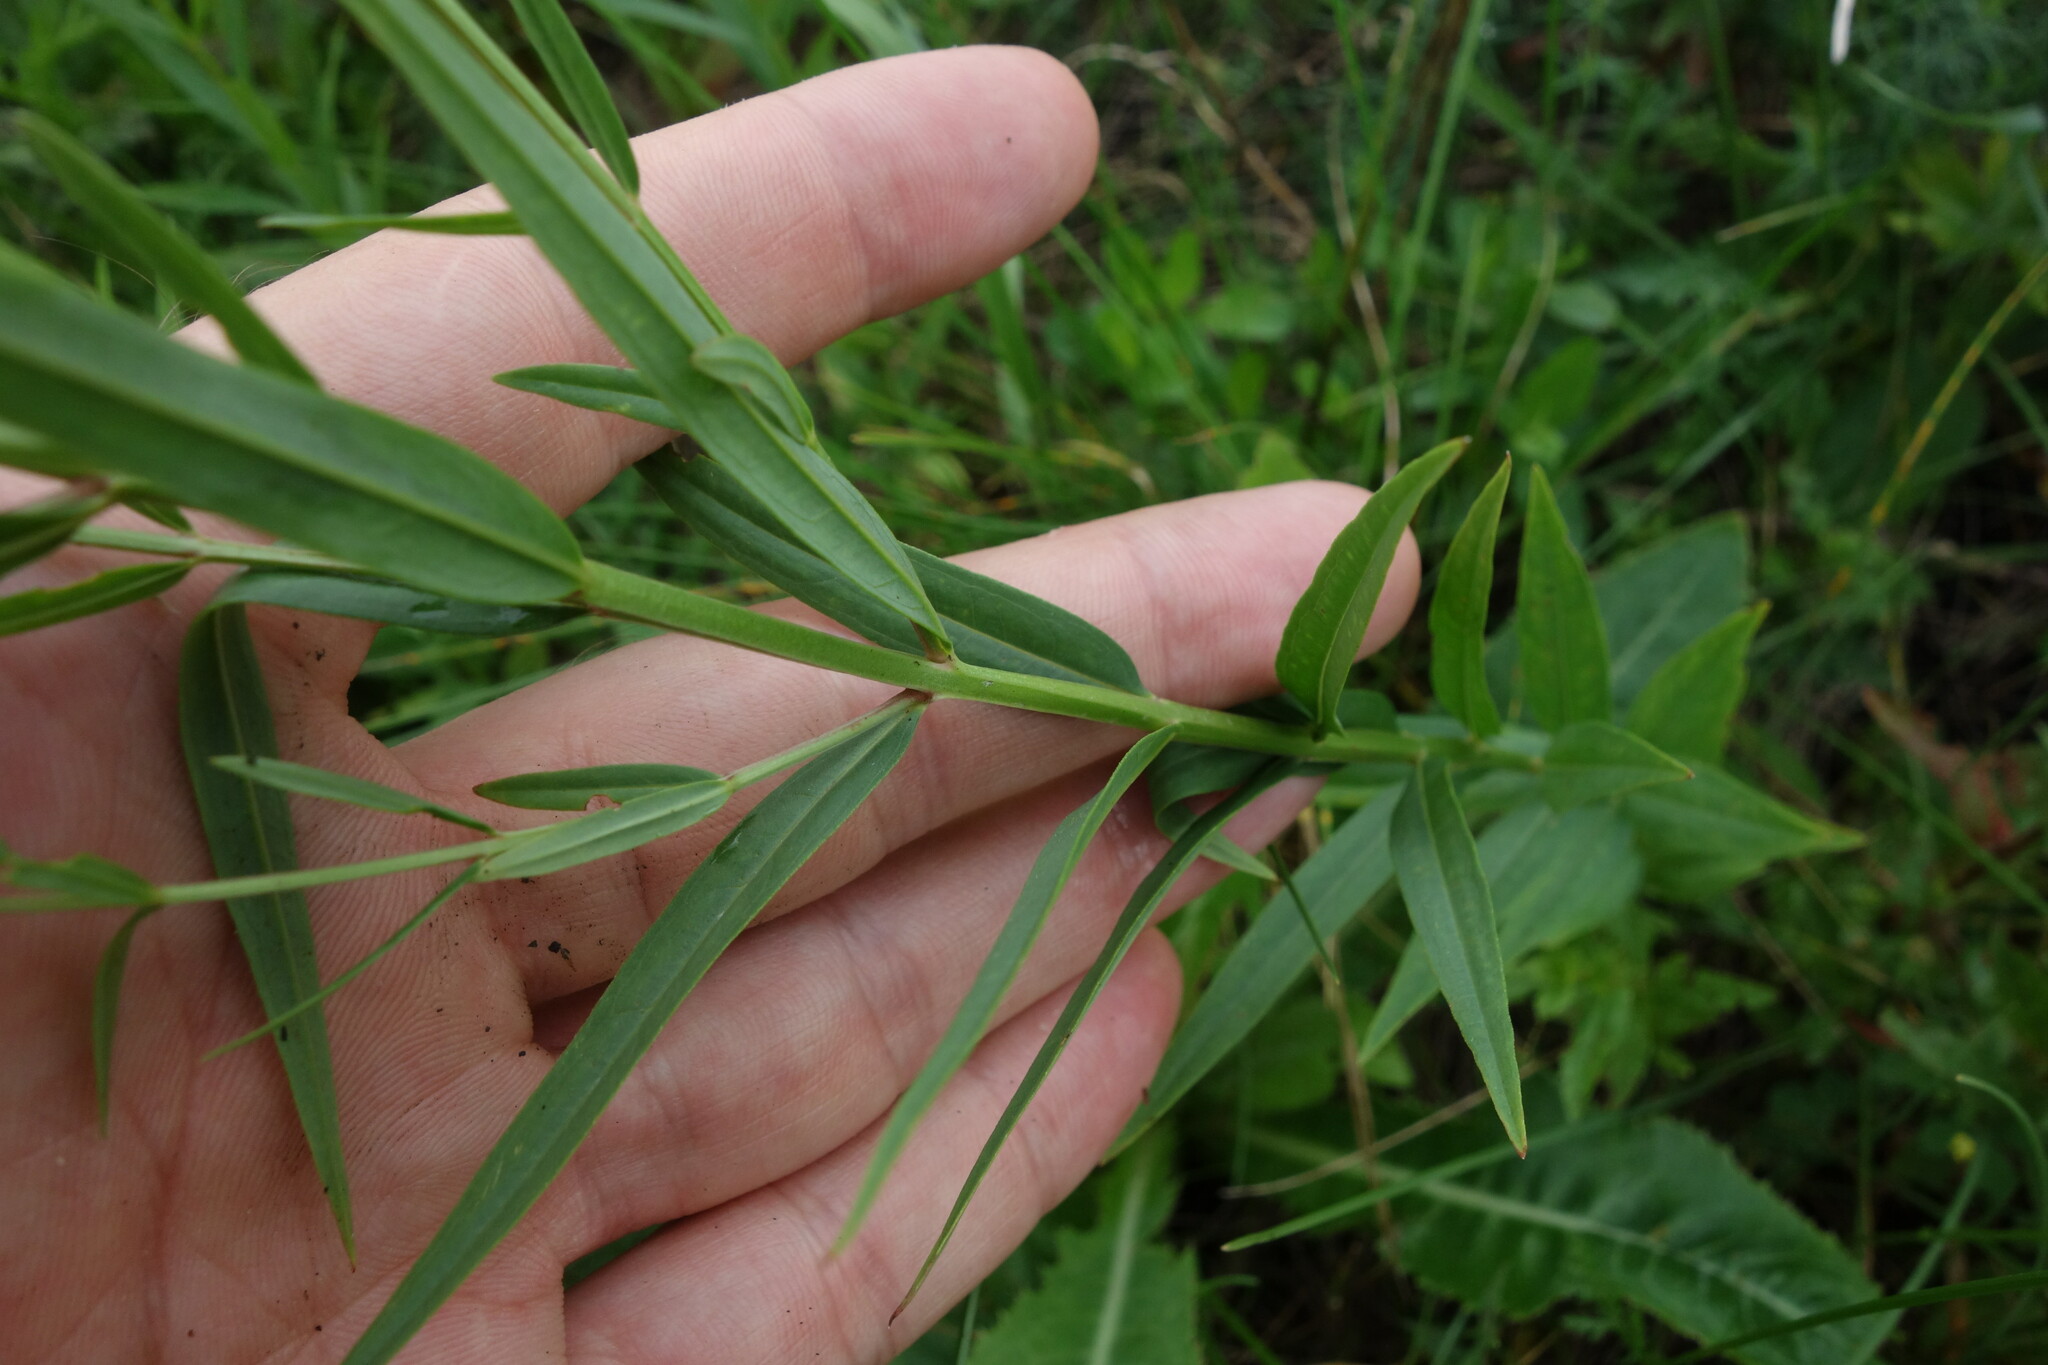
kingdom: Plantae
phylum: Tracheophyta
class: Magnoliopsida
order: Myrtales
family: Lythraceae
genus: Lythrum
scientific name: Lythrum virgatum
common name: European wand loosestrife
